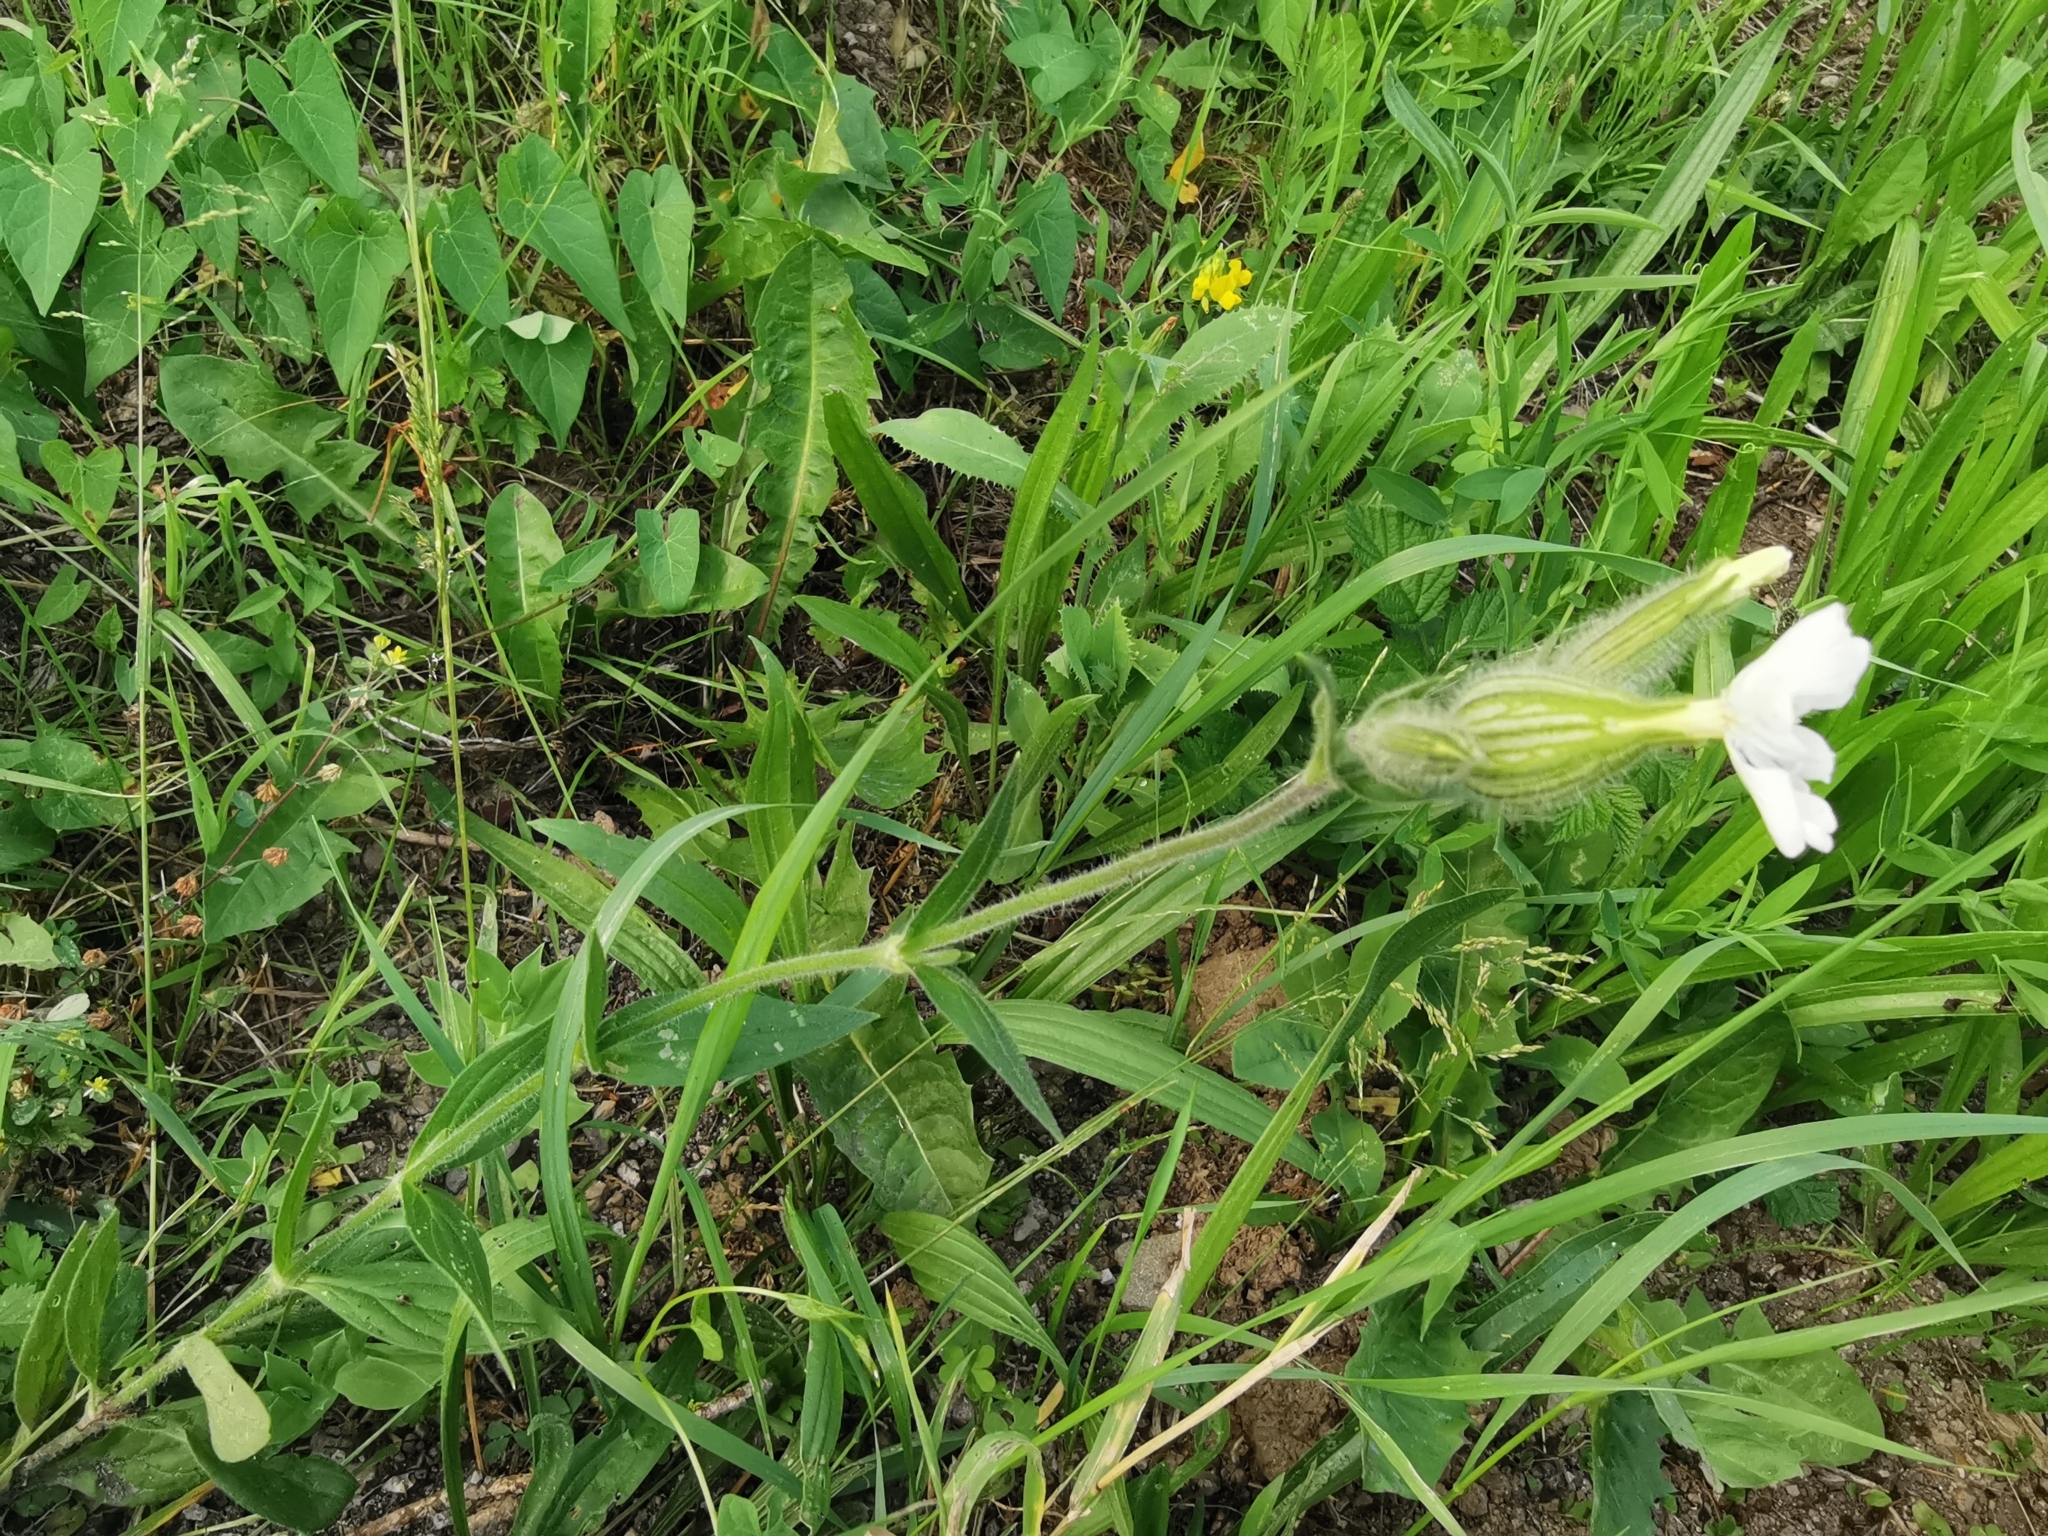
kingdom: Plantae
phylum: Tracheophyta
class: Magnoliopsida
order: Caryophyllales
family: Caryophyllaceae
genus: Silene
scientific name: Silene latifolia
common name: White campion
